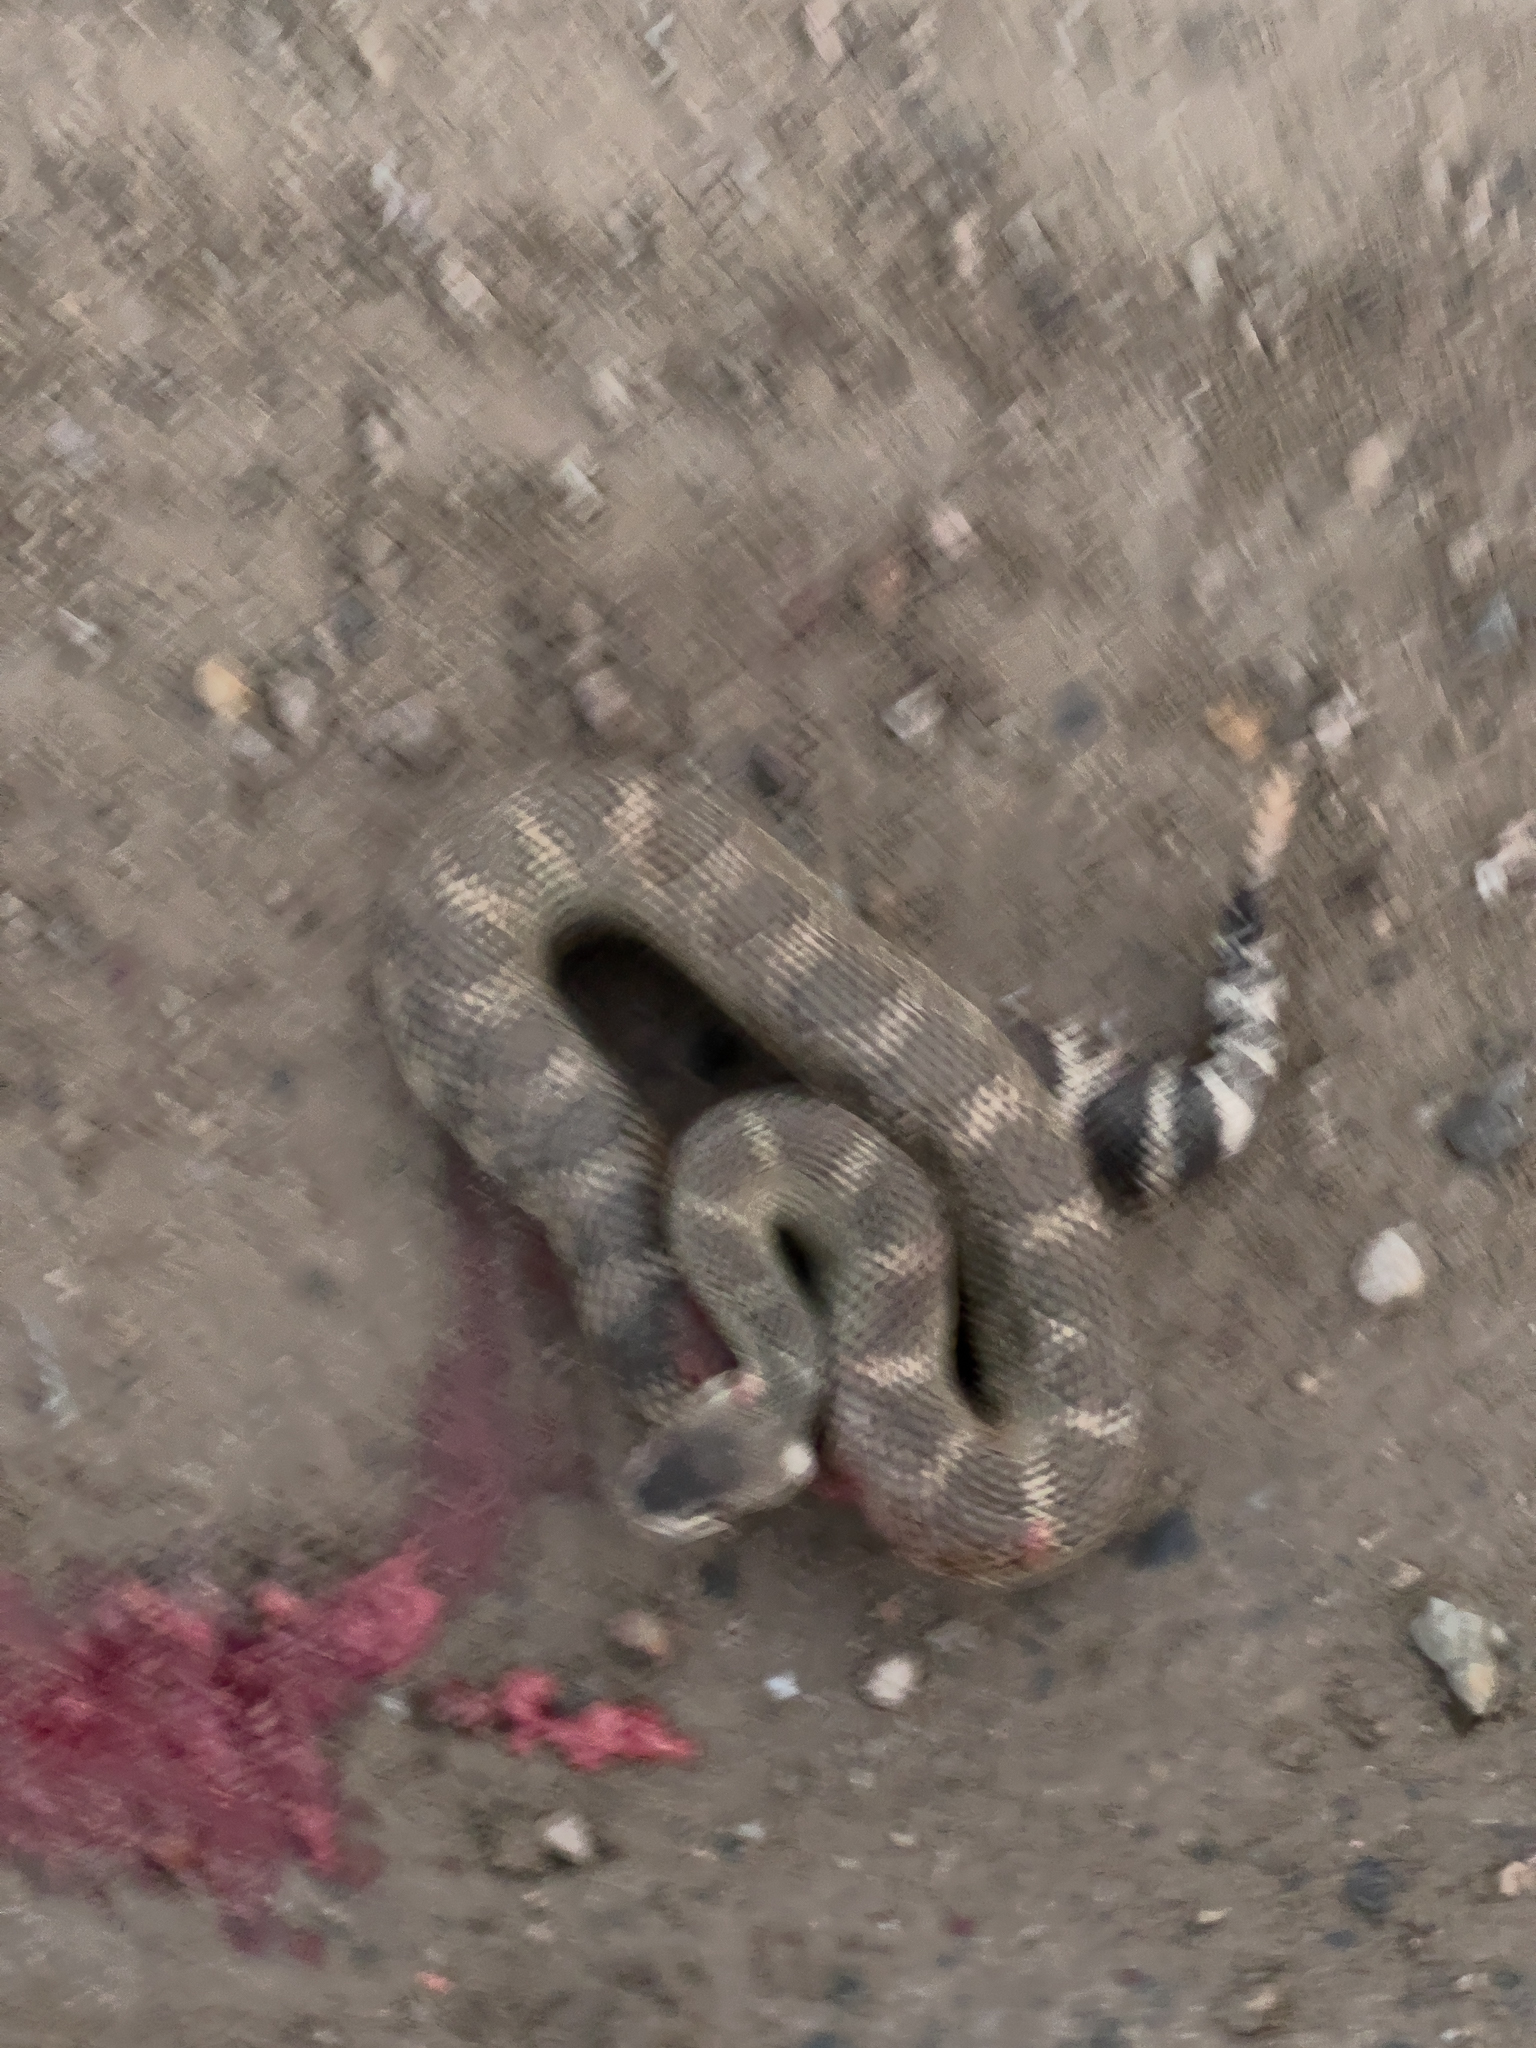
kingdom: Animalia
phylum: Chordata
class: Squamata
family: Viperidae
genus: Crotalus
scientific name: Crotalus oreganus
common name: Abyssus
